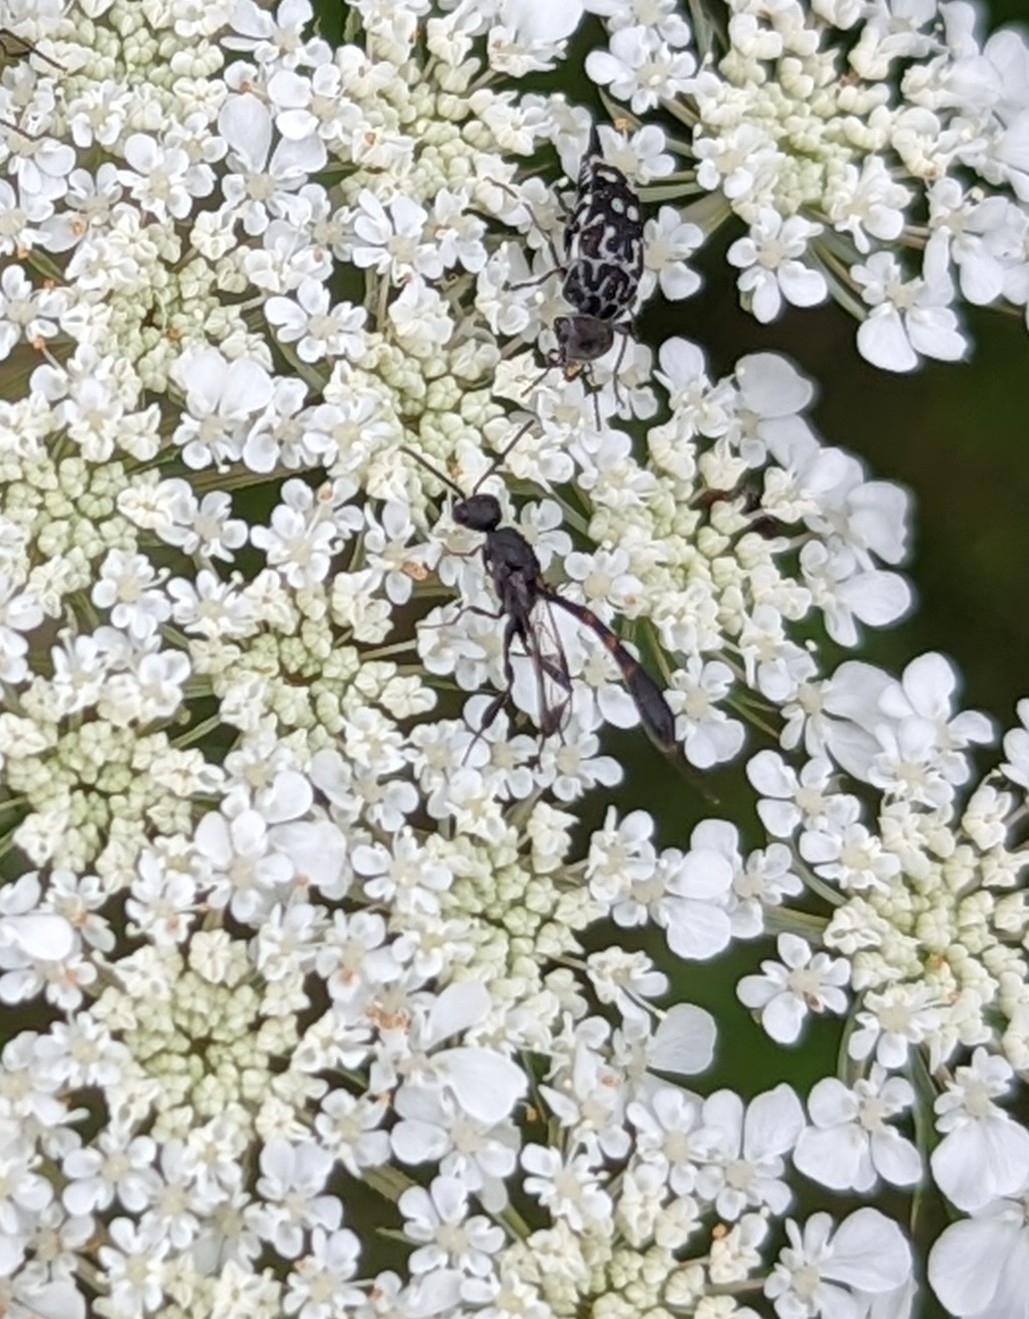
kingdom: Animalia
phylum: Arthropoda
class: Insecta
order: Hymenoptera
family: Gasteruptiidae
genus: Gasteruption
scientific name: Gasteruption
